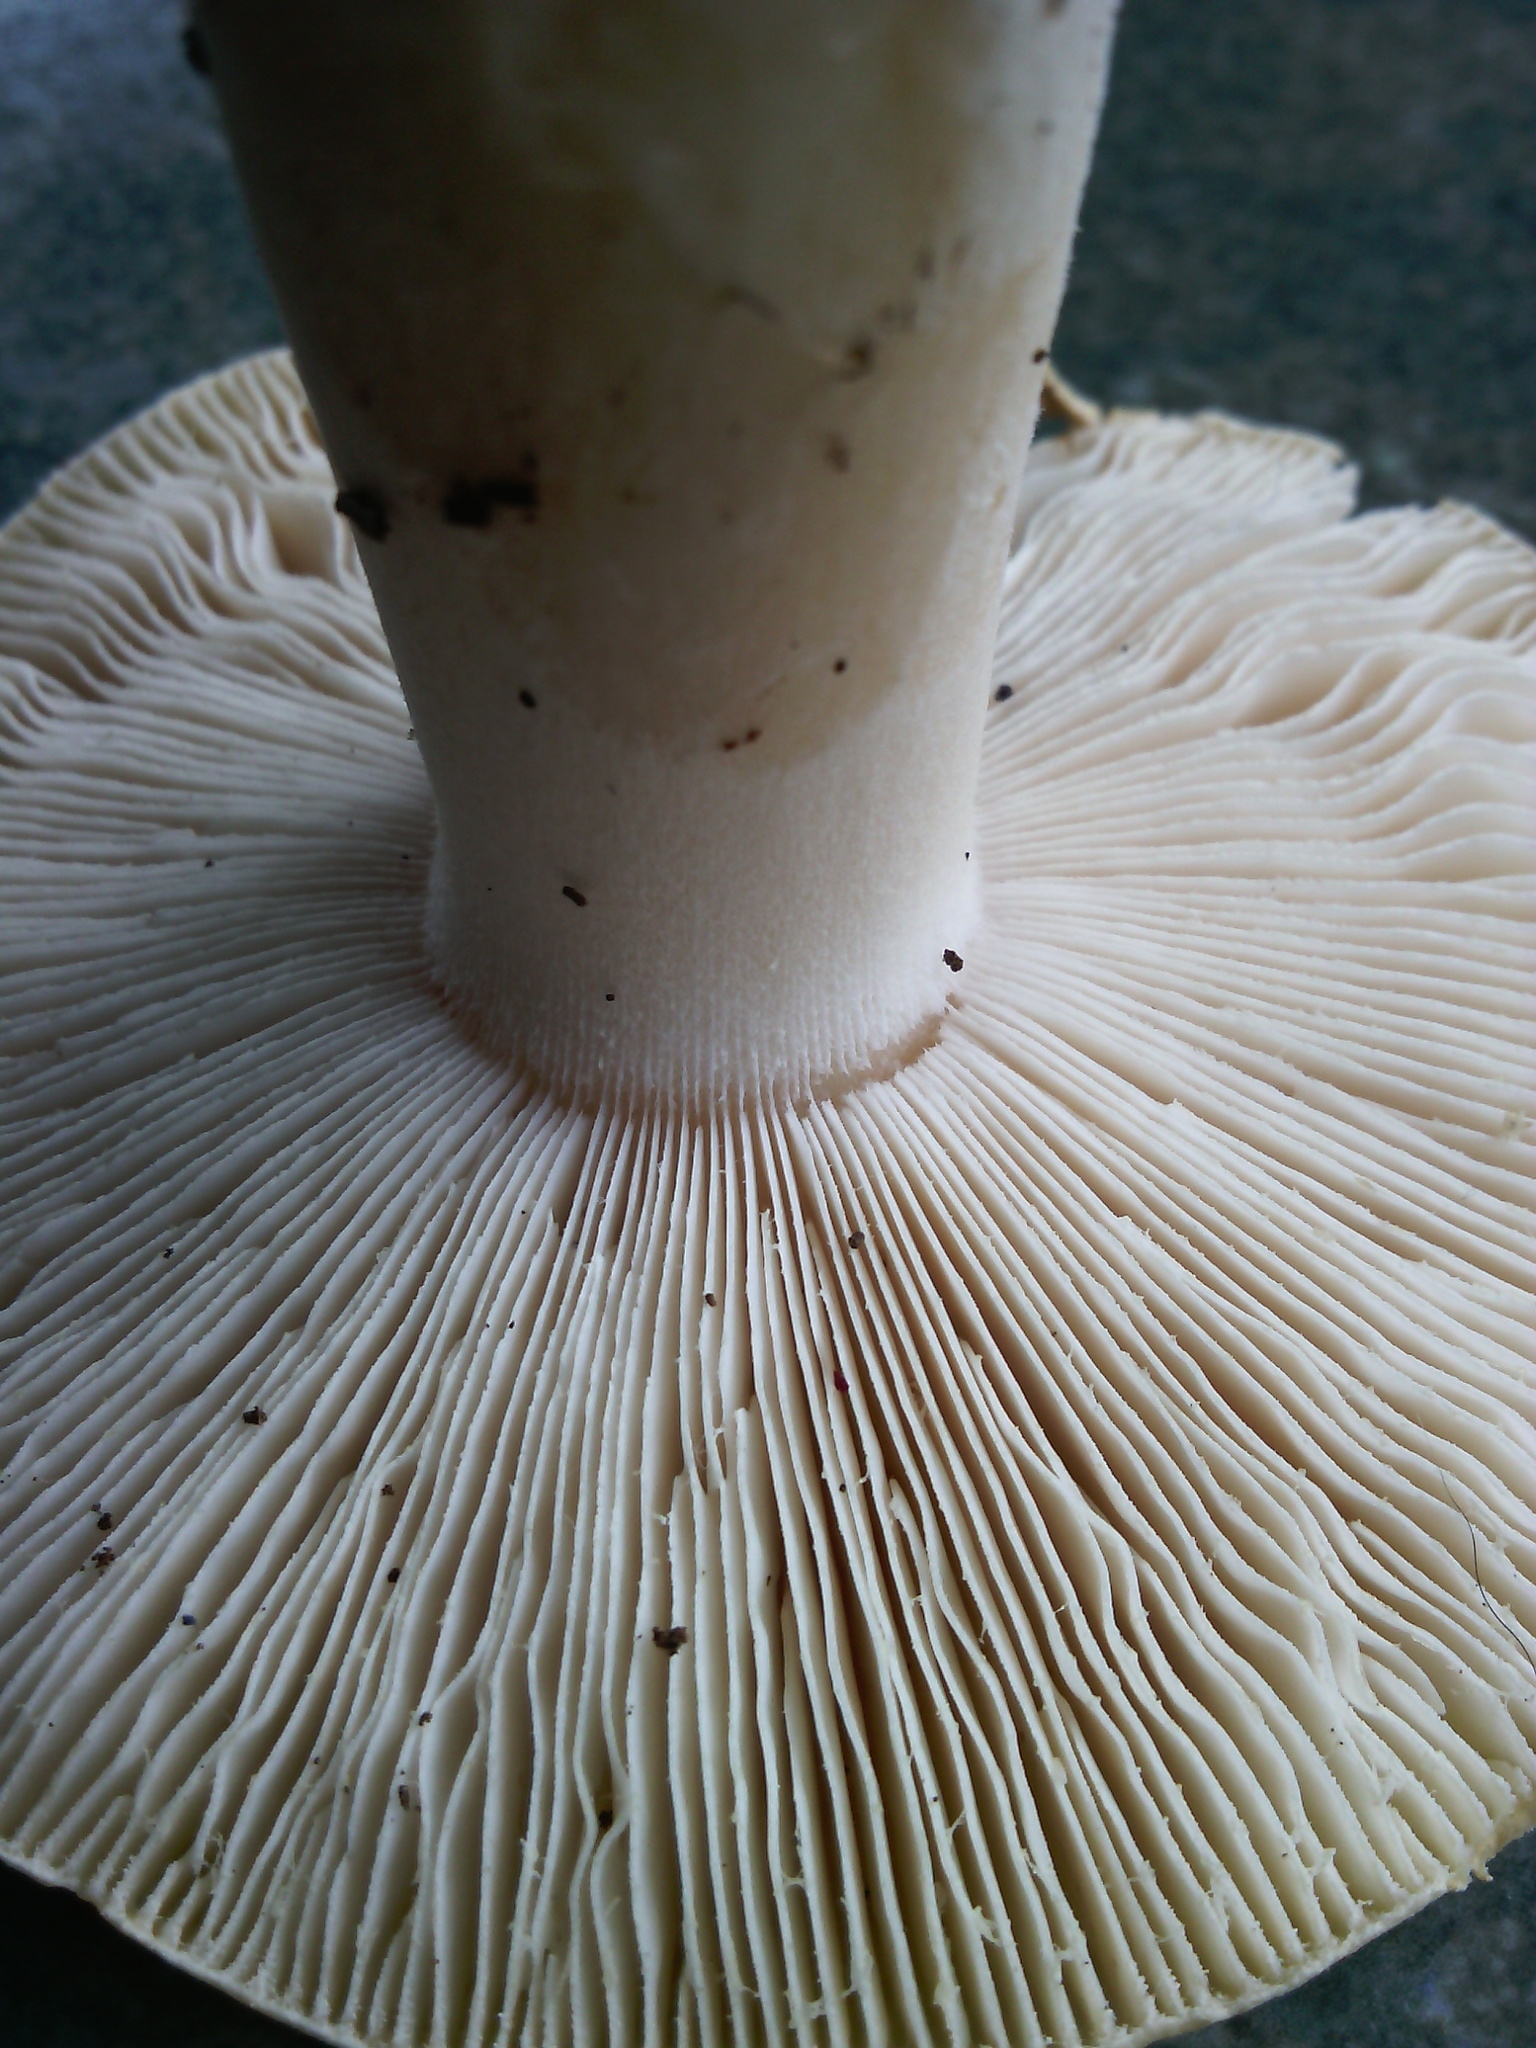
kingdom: Fungi
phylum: Basidiomycota
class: Agaricomycetes
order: Agaricales
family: Amanitaceae
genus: Amanita
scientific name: Amanita gemmata
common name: Jewelled amanita
